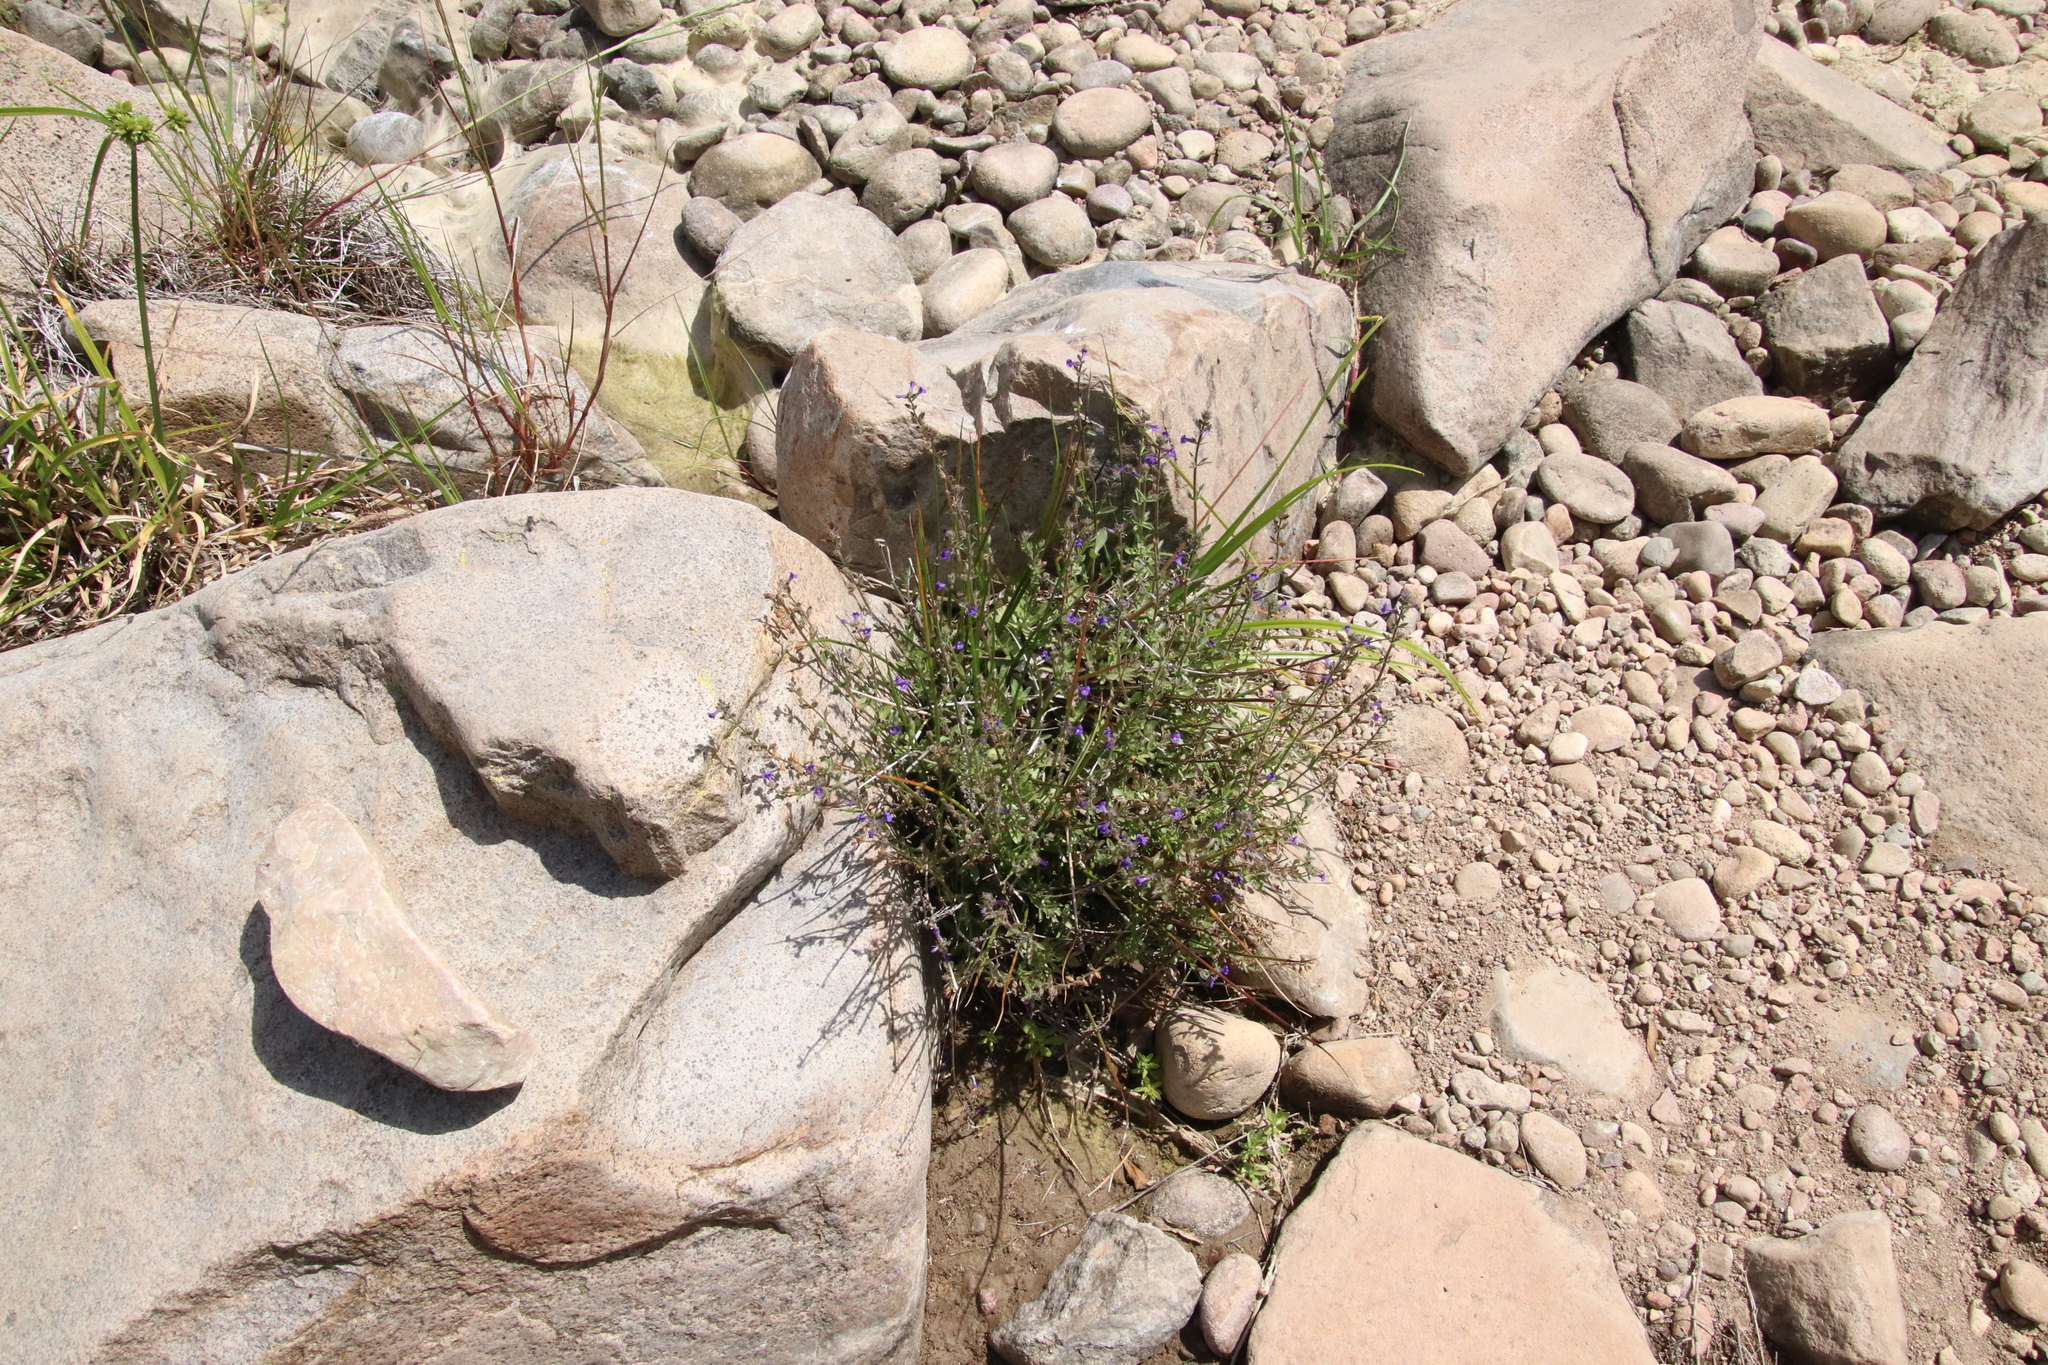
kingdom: Plantae
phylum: Tracheophyta
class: Magnoliopsida
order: Lamiales
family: Plantaginaceae
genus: Stemodia
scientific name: Stemodia durantifolia
